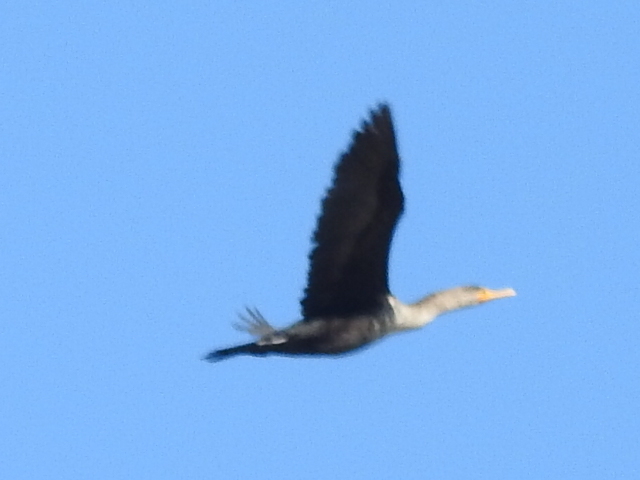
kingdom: Animalia
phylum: Chordata
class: Aves
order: Suliformes
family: Phalacrocoracidae
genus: Phalacrocorax
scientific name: Phalacrocorax auritus
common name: Double-crested cormorant
